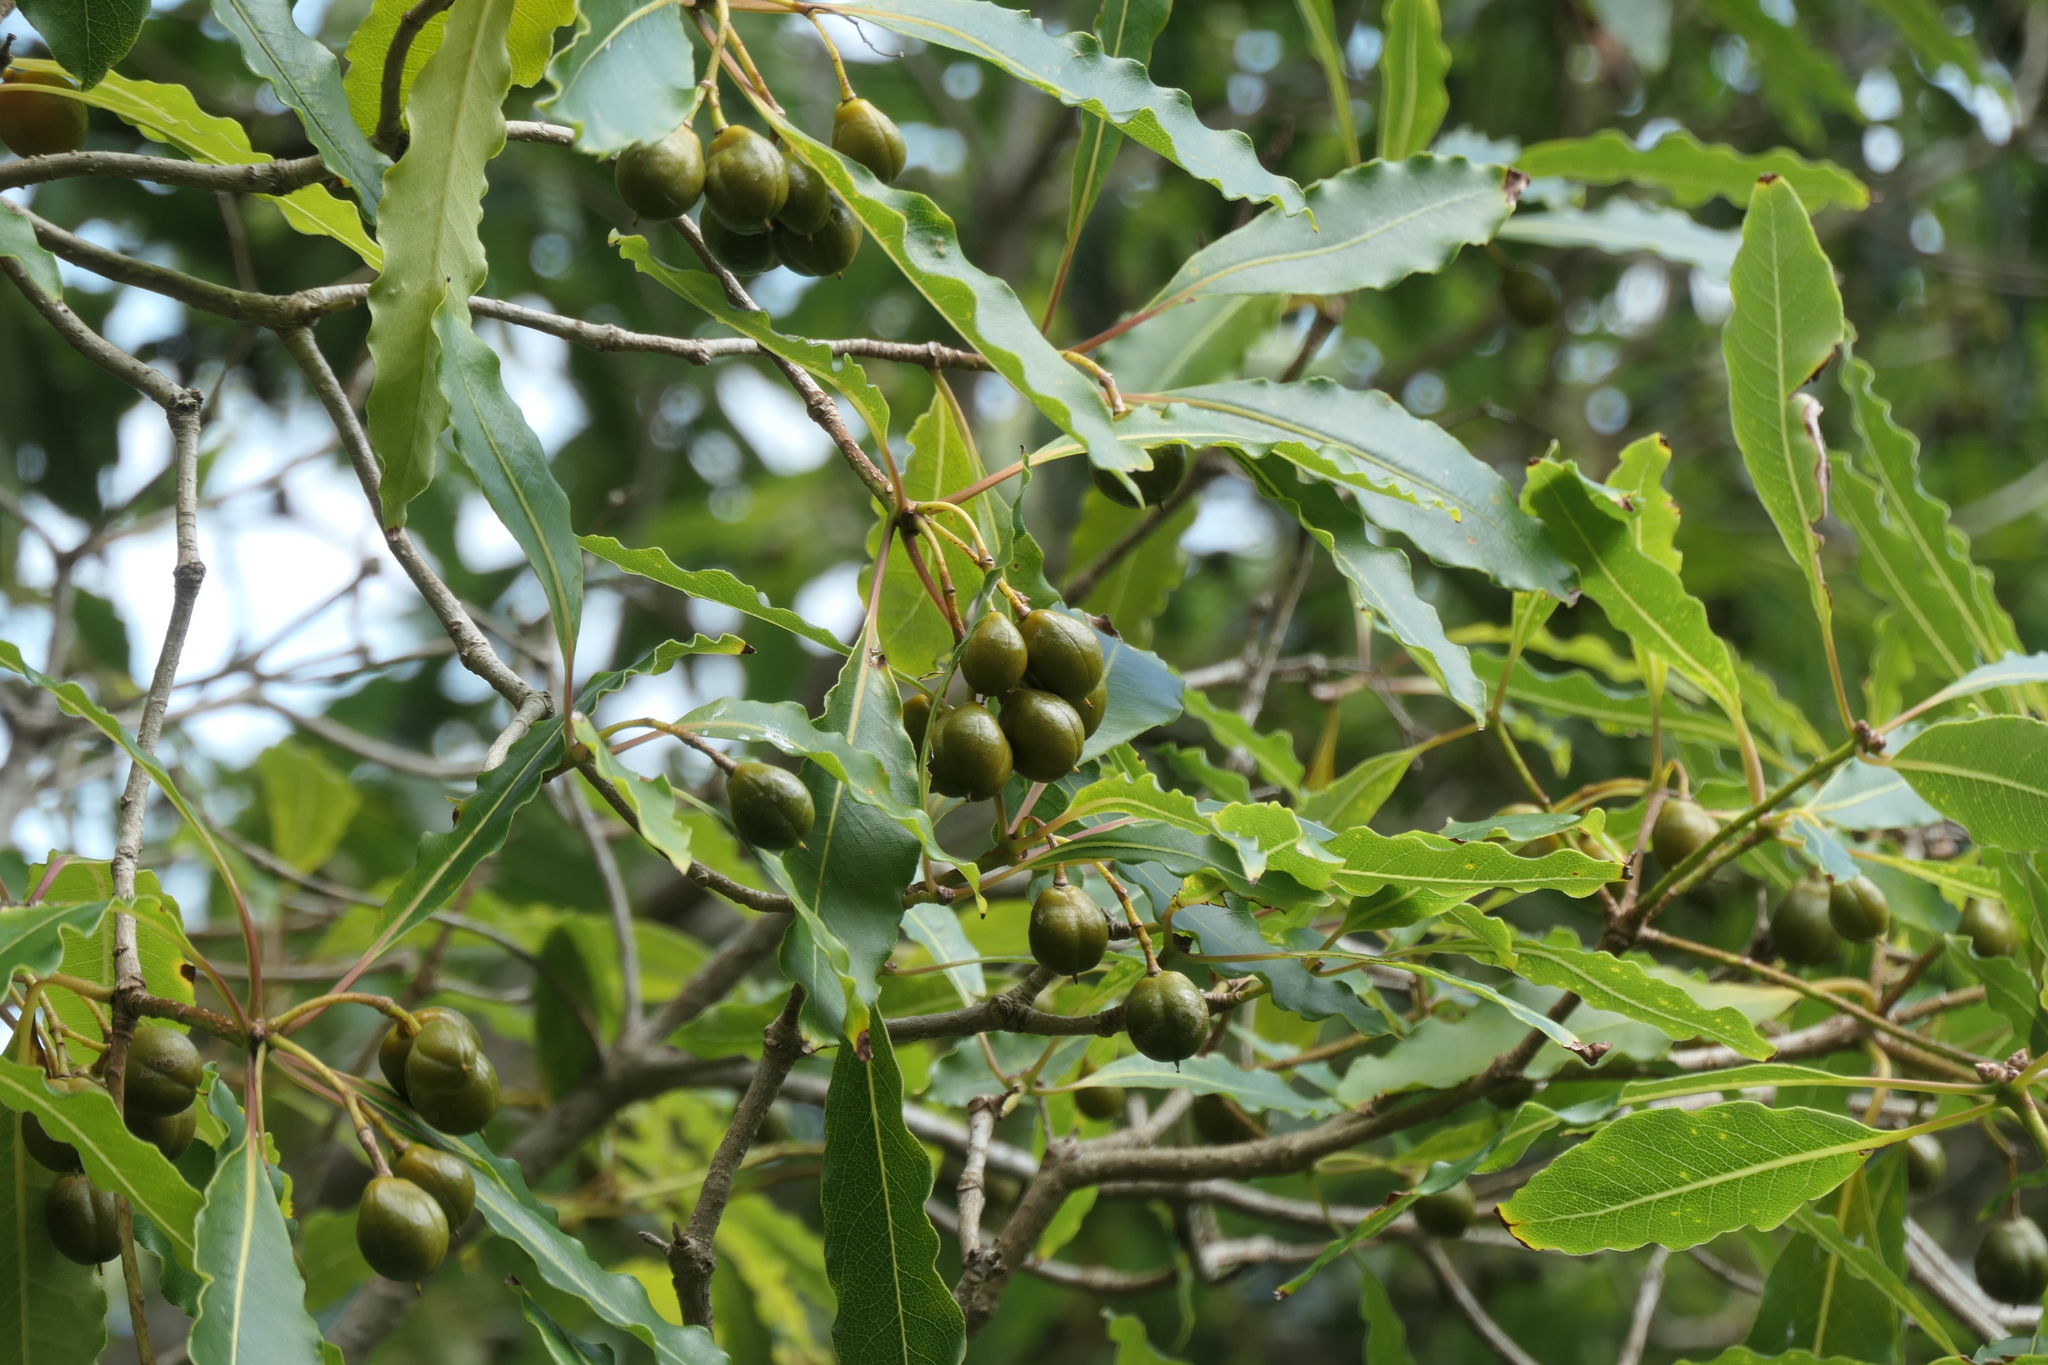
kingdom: Plantae
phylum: Tracheophyta
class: Magnoliopsida
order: Apiales
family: Pittosporaceae
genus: Pittosporum
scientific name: Pittosporum undulatum
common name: Australian cheesewood
